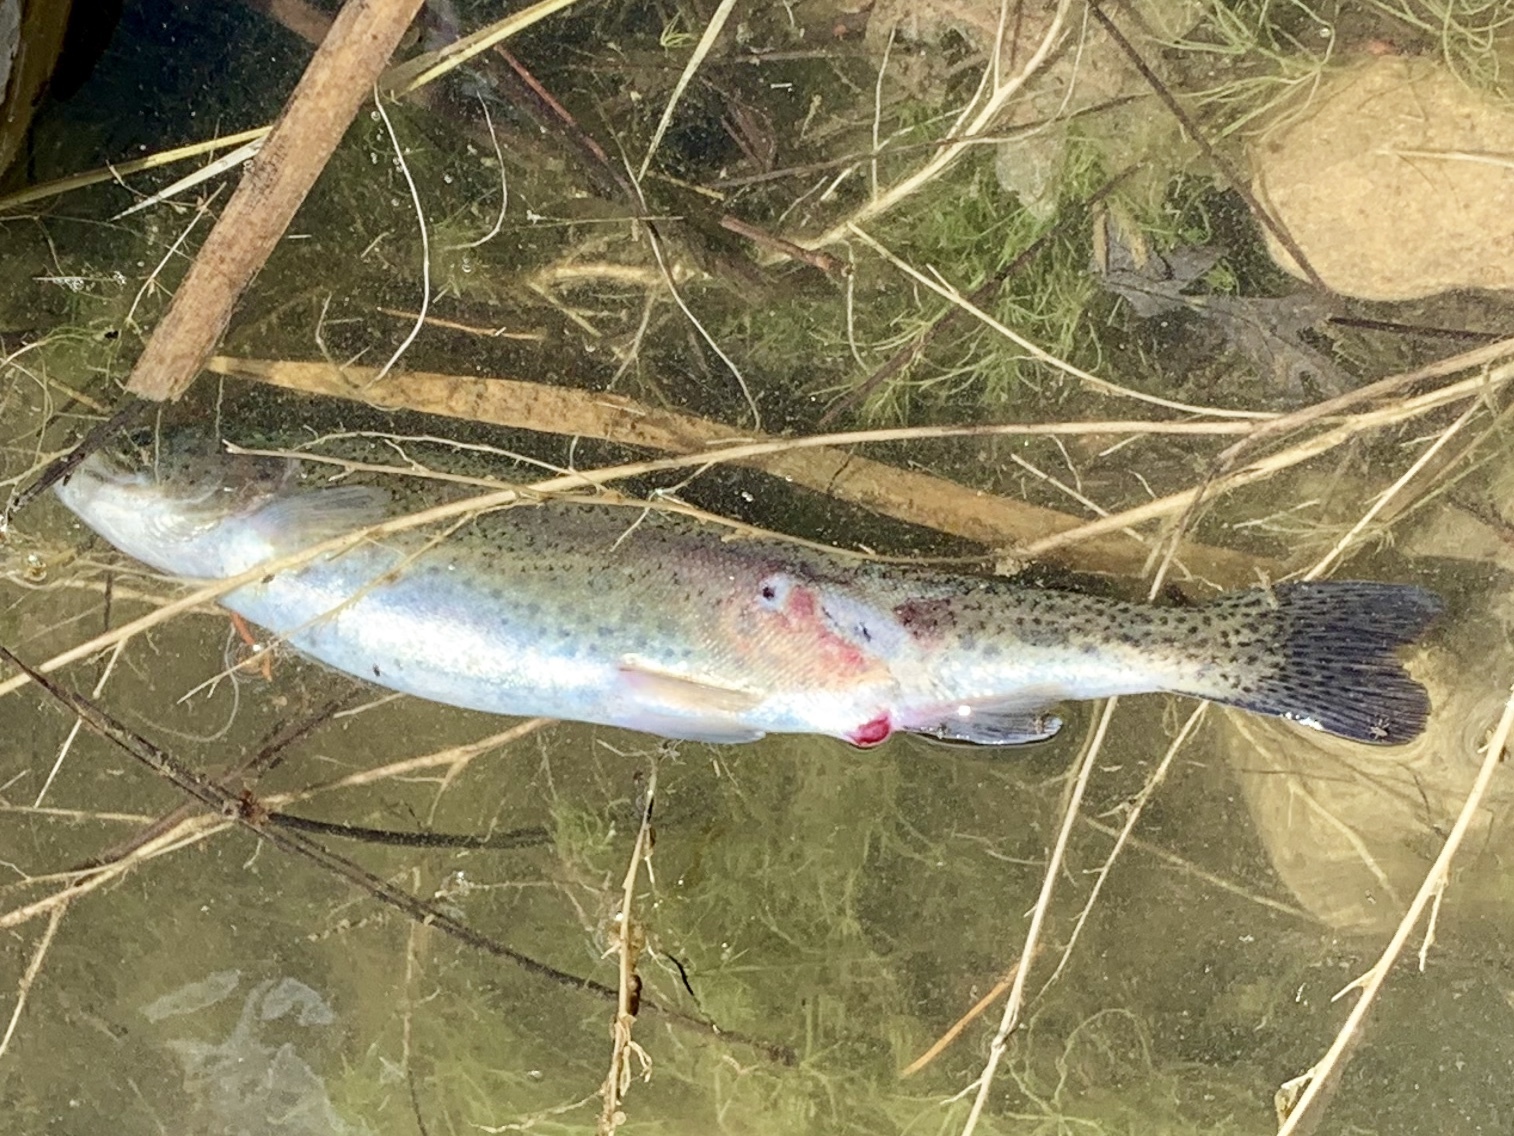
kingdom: Animalia
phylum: Chordata
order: Salmoniformes
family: Salmonidae
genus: Oncorhynchus
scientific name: Oncorhynchus mykiss
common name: Rainbow trout
